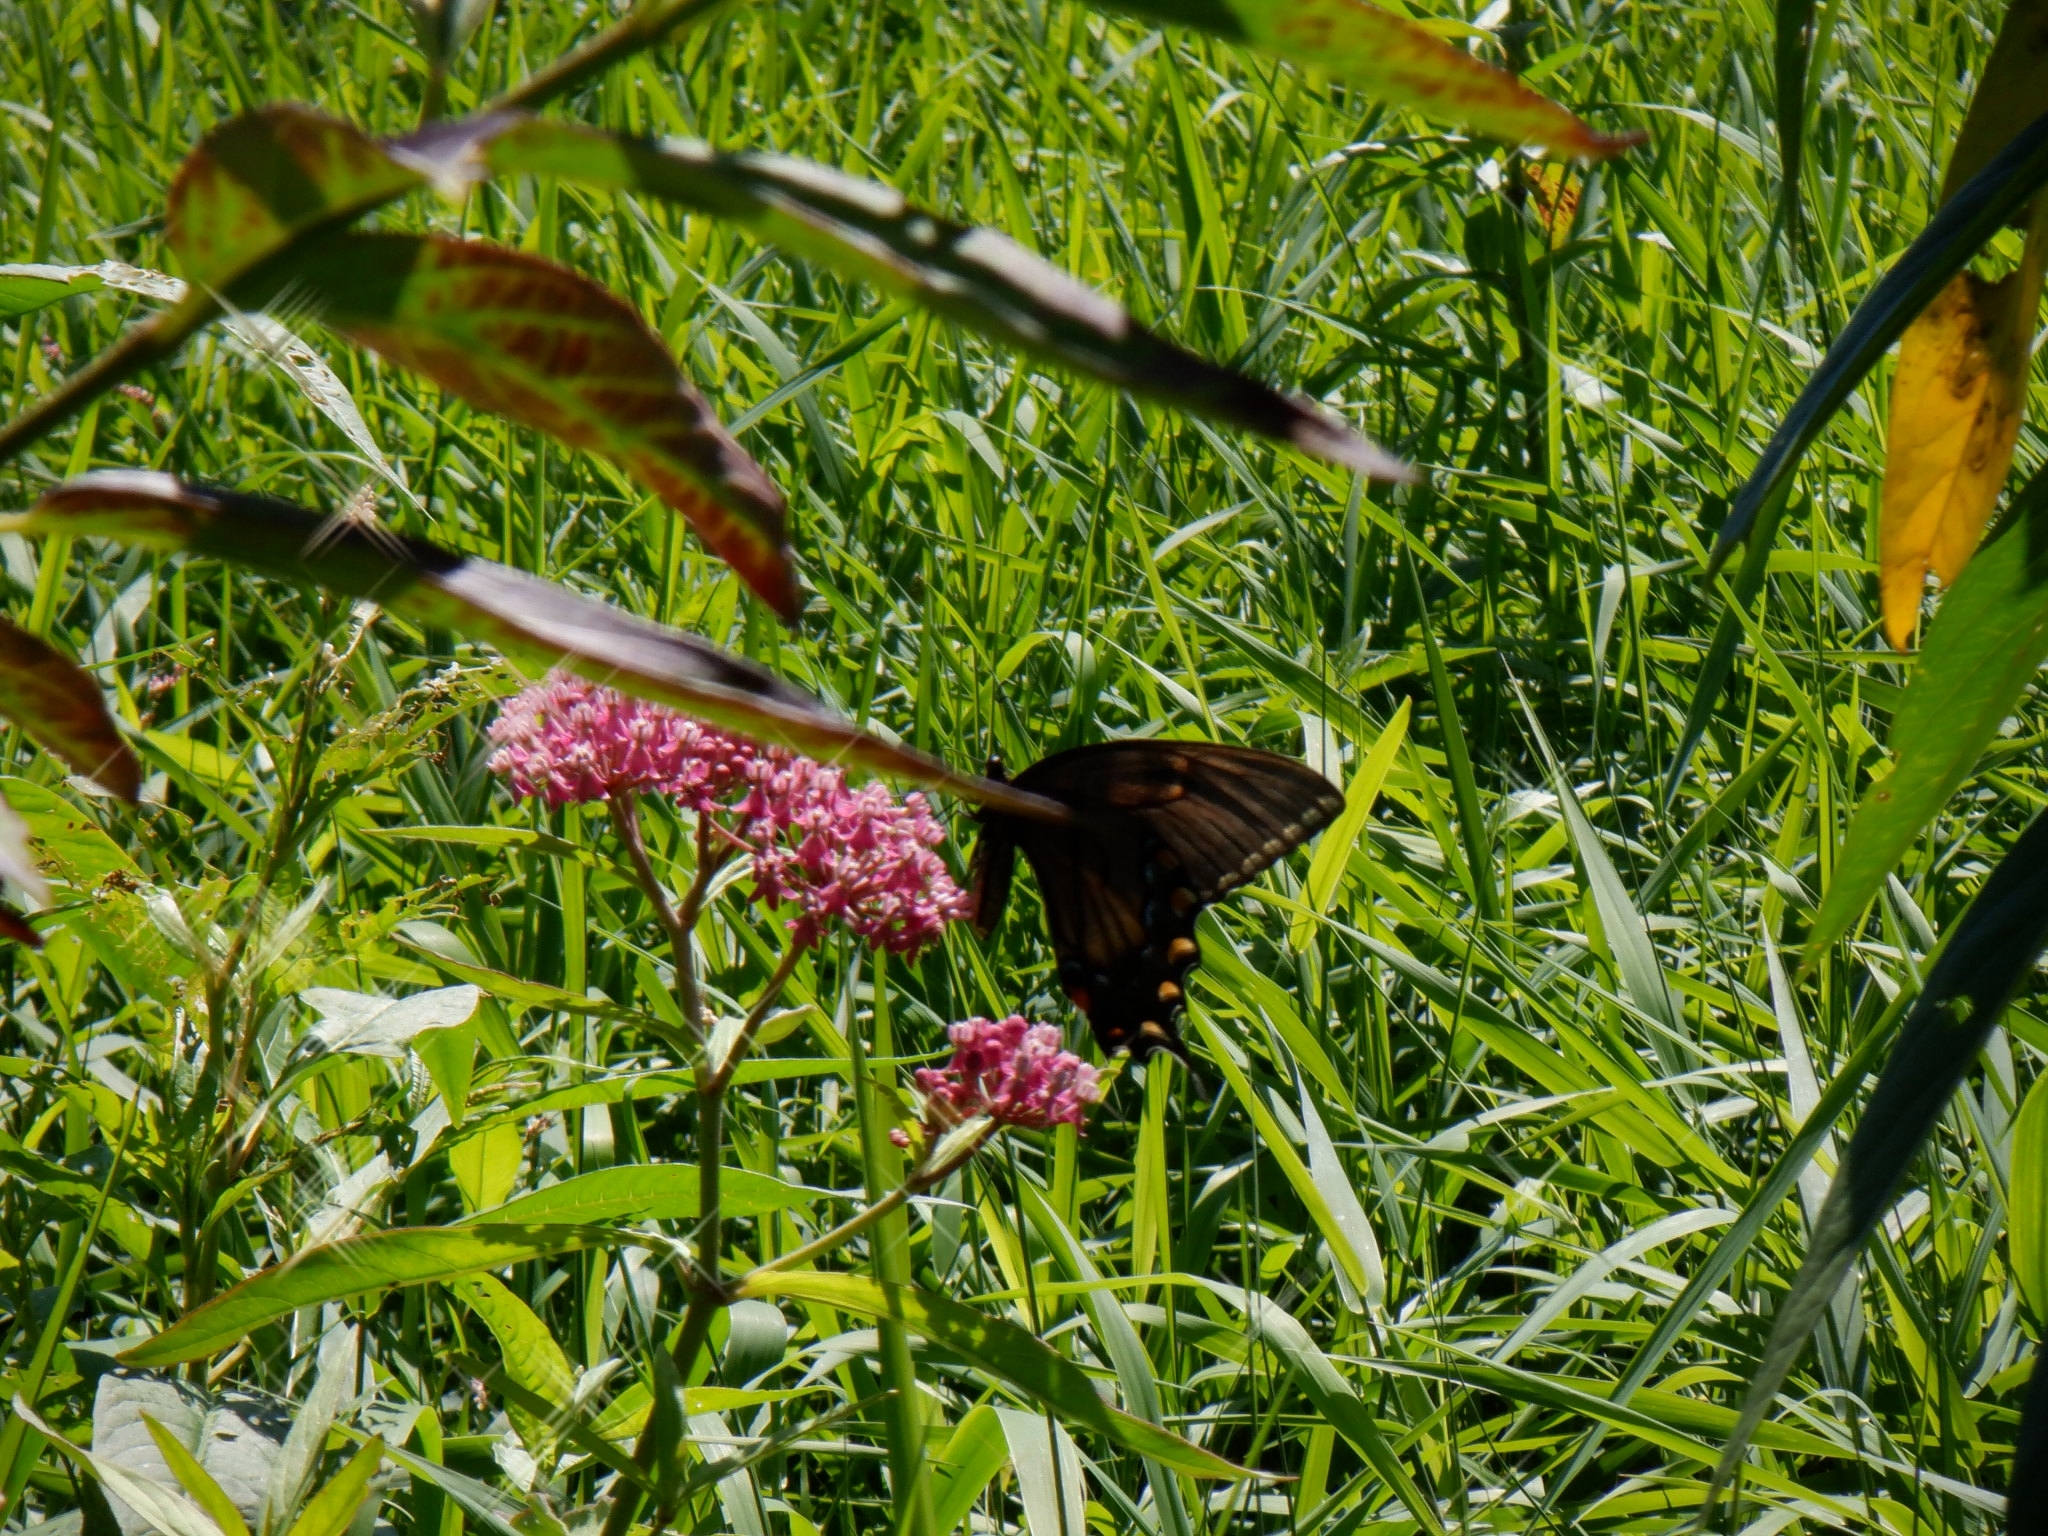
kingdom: Animalia
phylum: Arthropoda
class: Insecta
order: Lepidoptera
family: Papilionidae
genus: Papilio
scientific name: Papilio glaucus
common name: Tiger swallowtail
